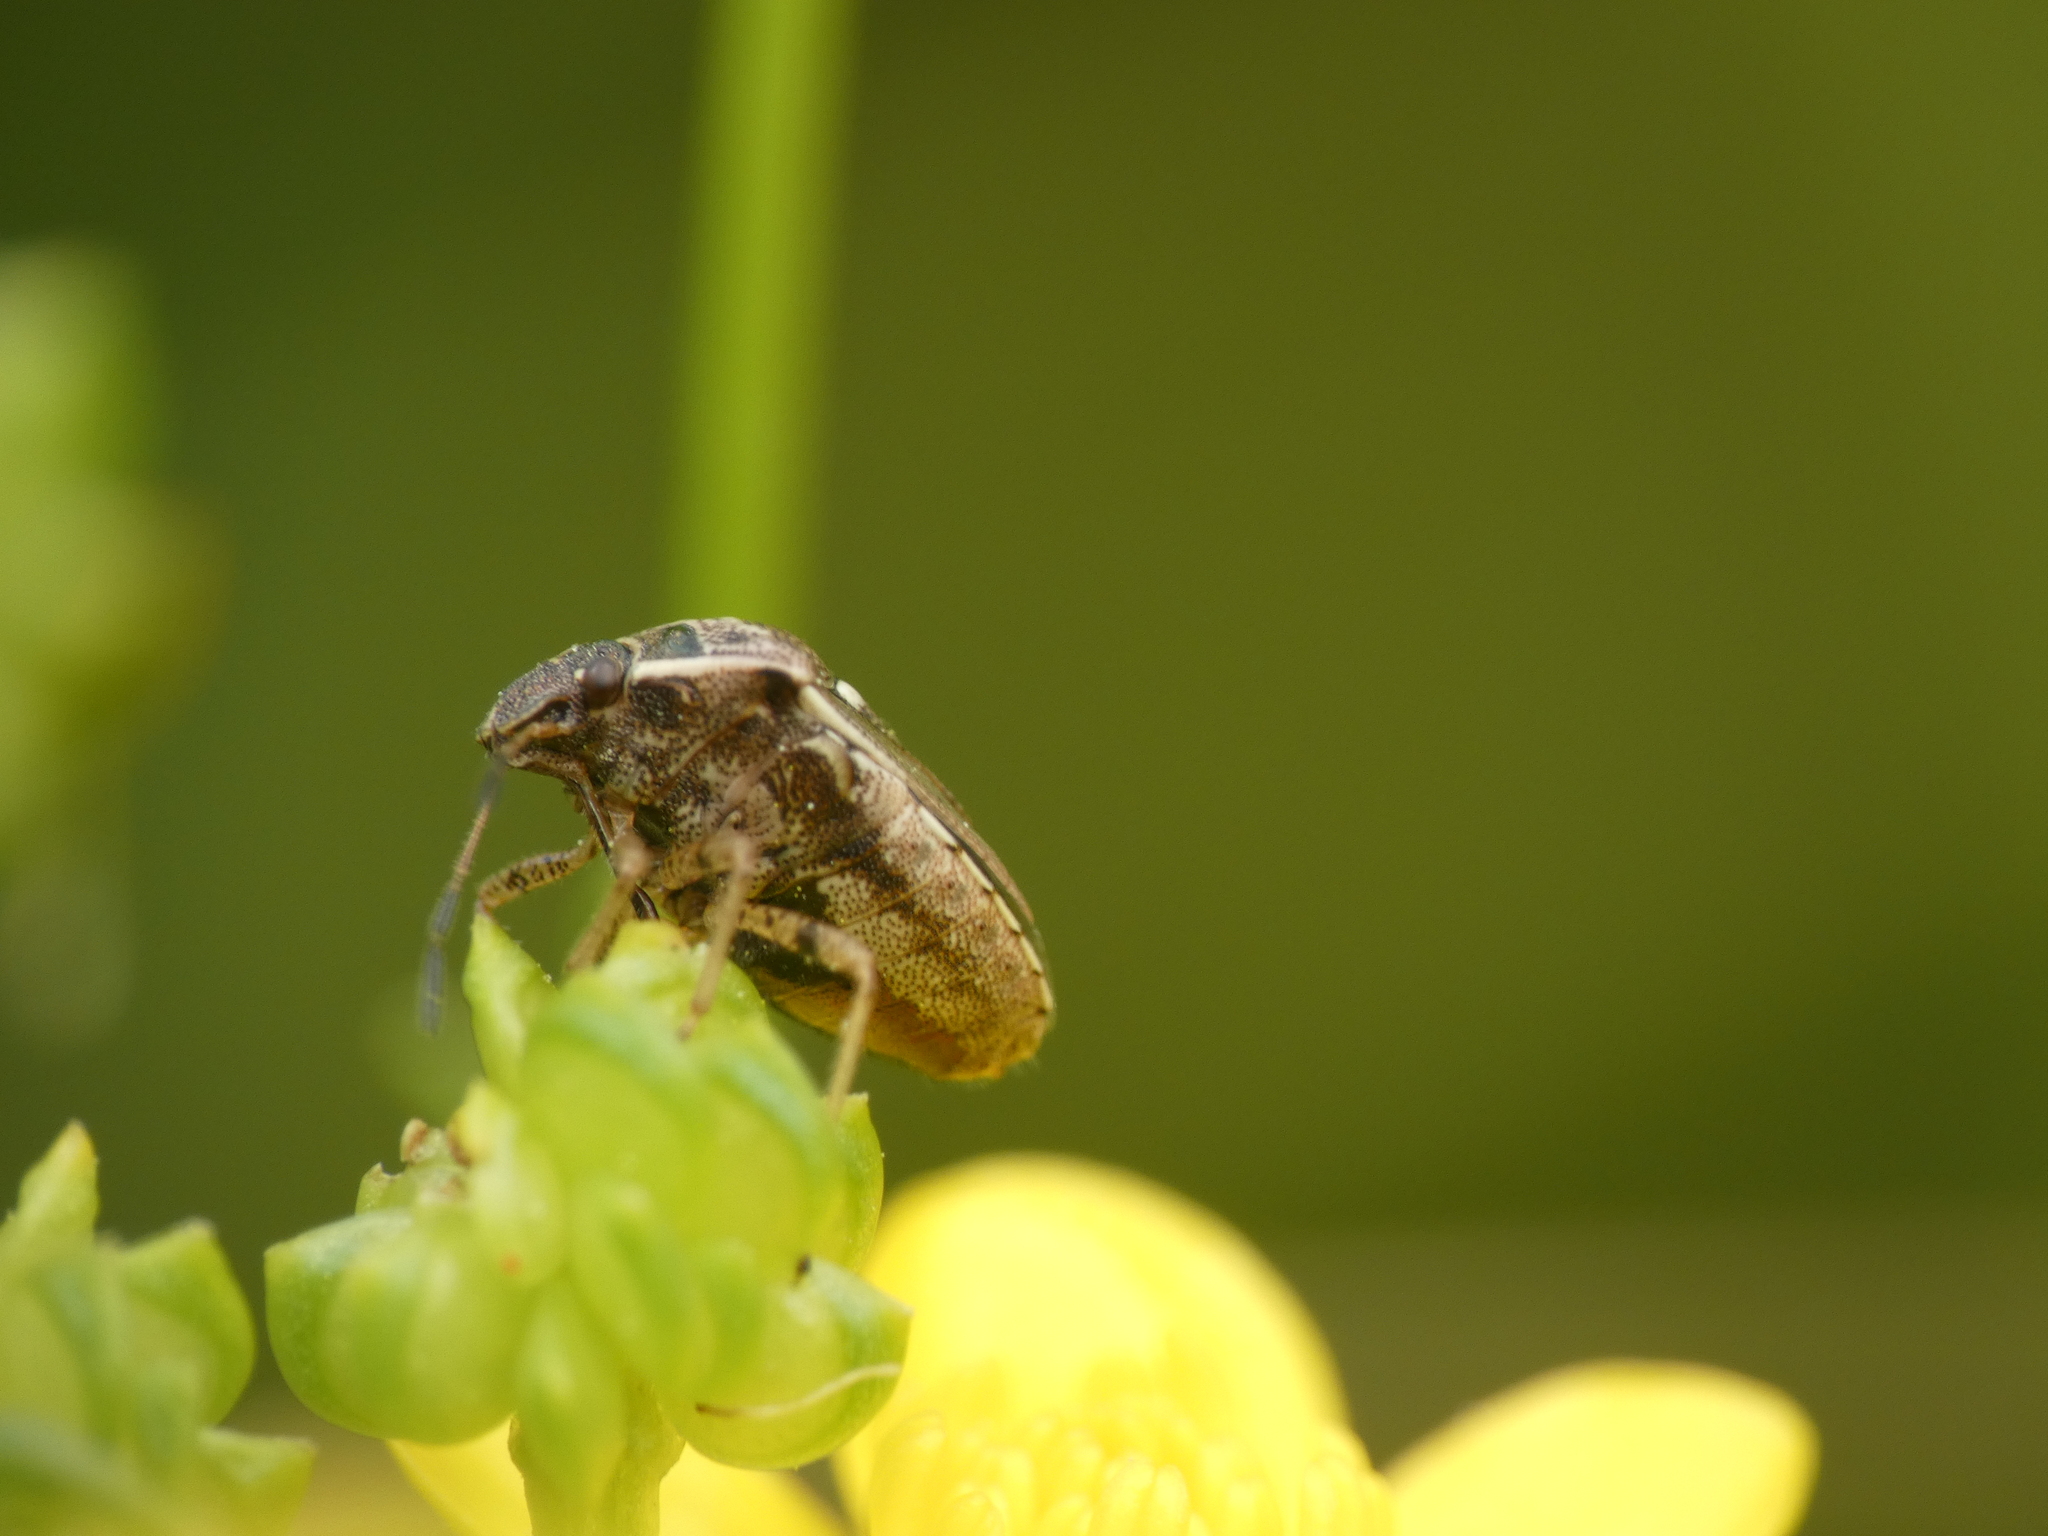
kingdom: Animalia
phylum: Arthropoda
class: Insecta
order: Hemiptera
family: Pentatomidae
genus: Eysarcoris
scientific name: Eysarcoris ventralis
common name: White-spotted stink bug
